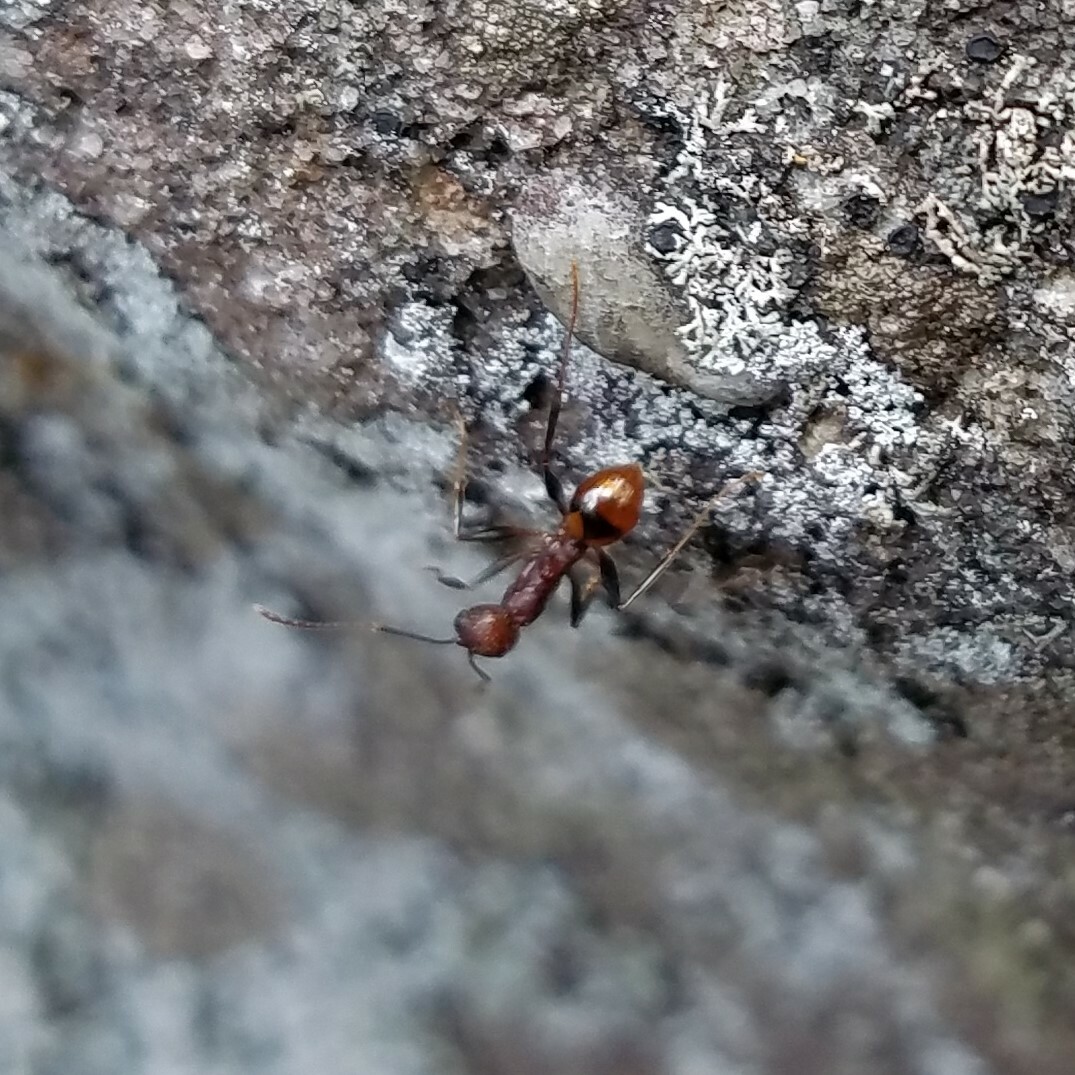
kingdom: Animalia
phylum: Arthropoda
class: Insecta
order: Hymenoptera
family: Formicidae
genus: Aphaenogaster
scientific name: Aphaenogaster lamellidens
